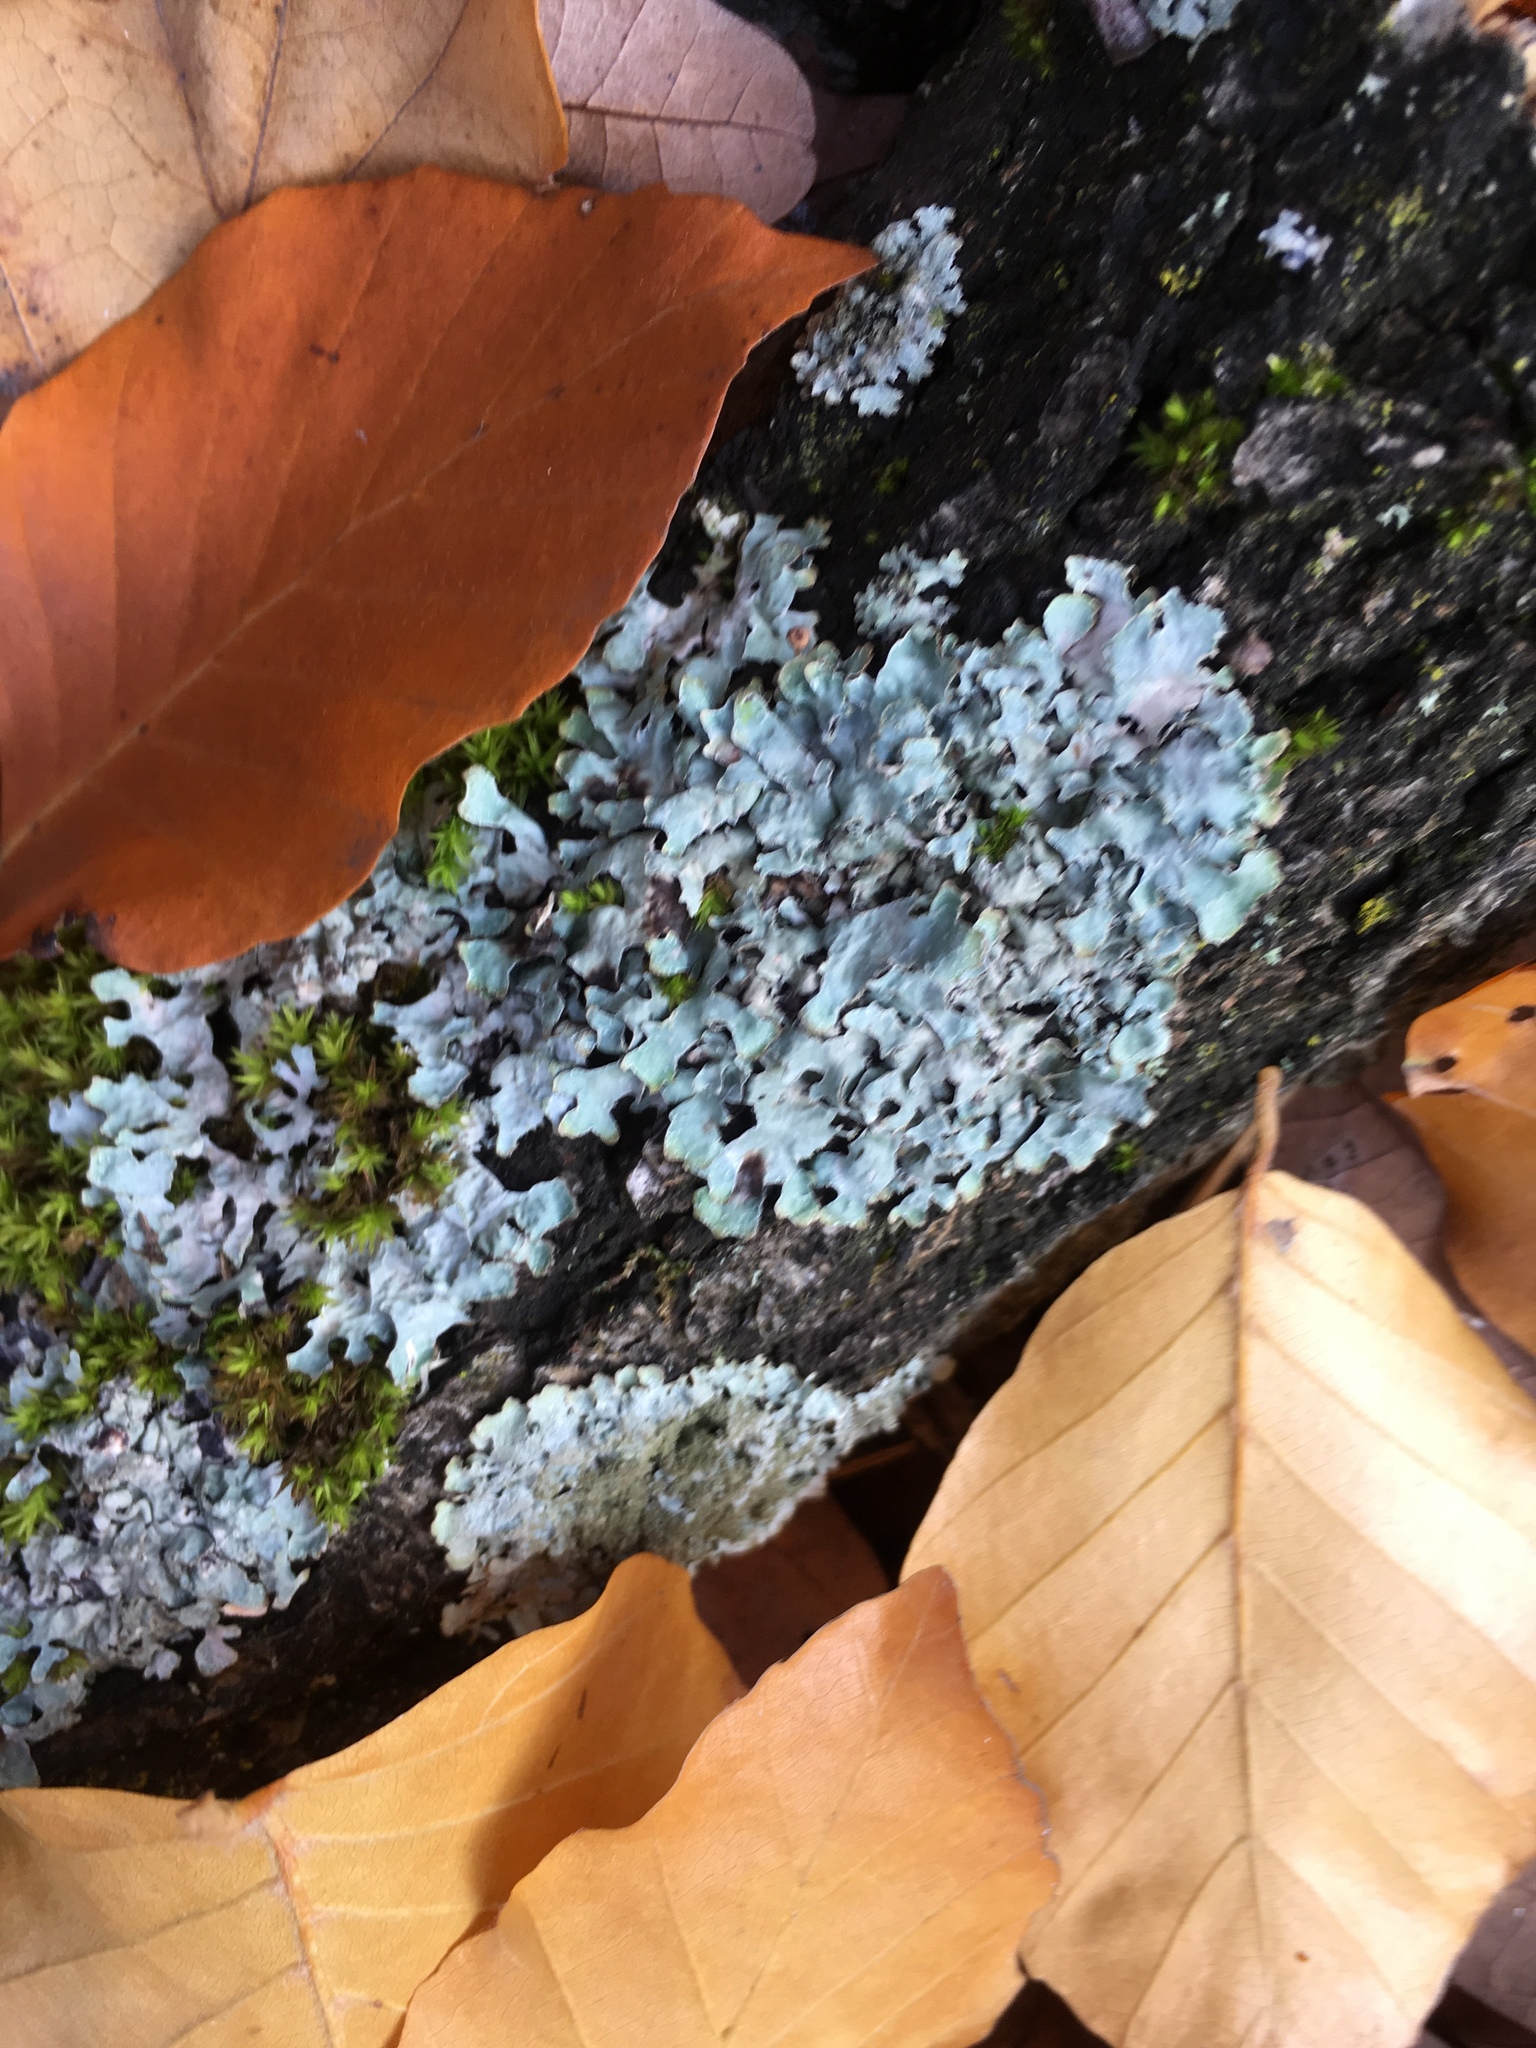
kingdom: Fungi
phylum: Ascomycota
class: Lecanoromycetes
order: Lecanorales
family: Parmeliaceae
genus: Parmelia
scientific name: Parmelia sulcata
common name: Netted shield lichen
